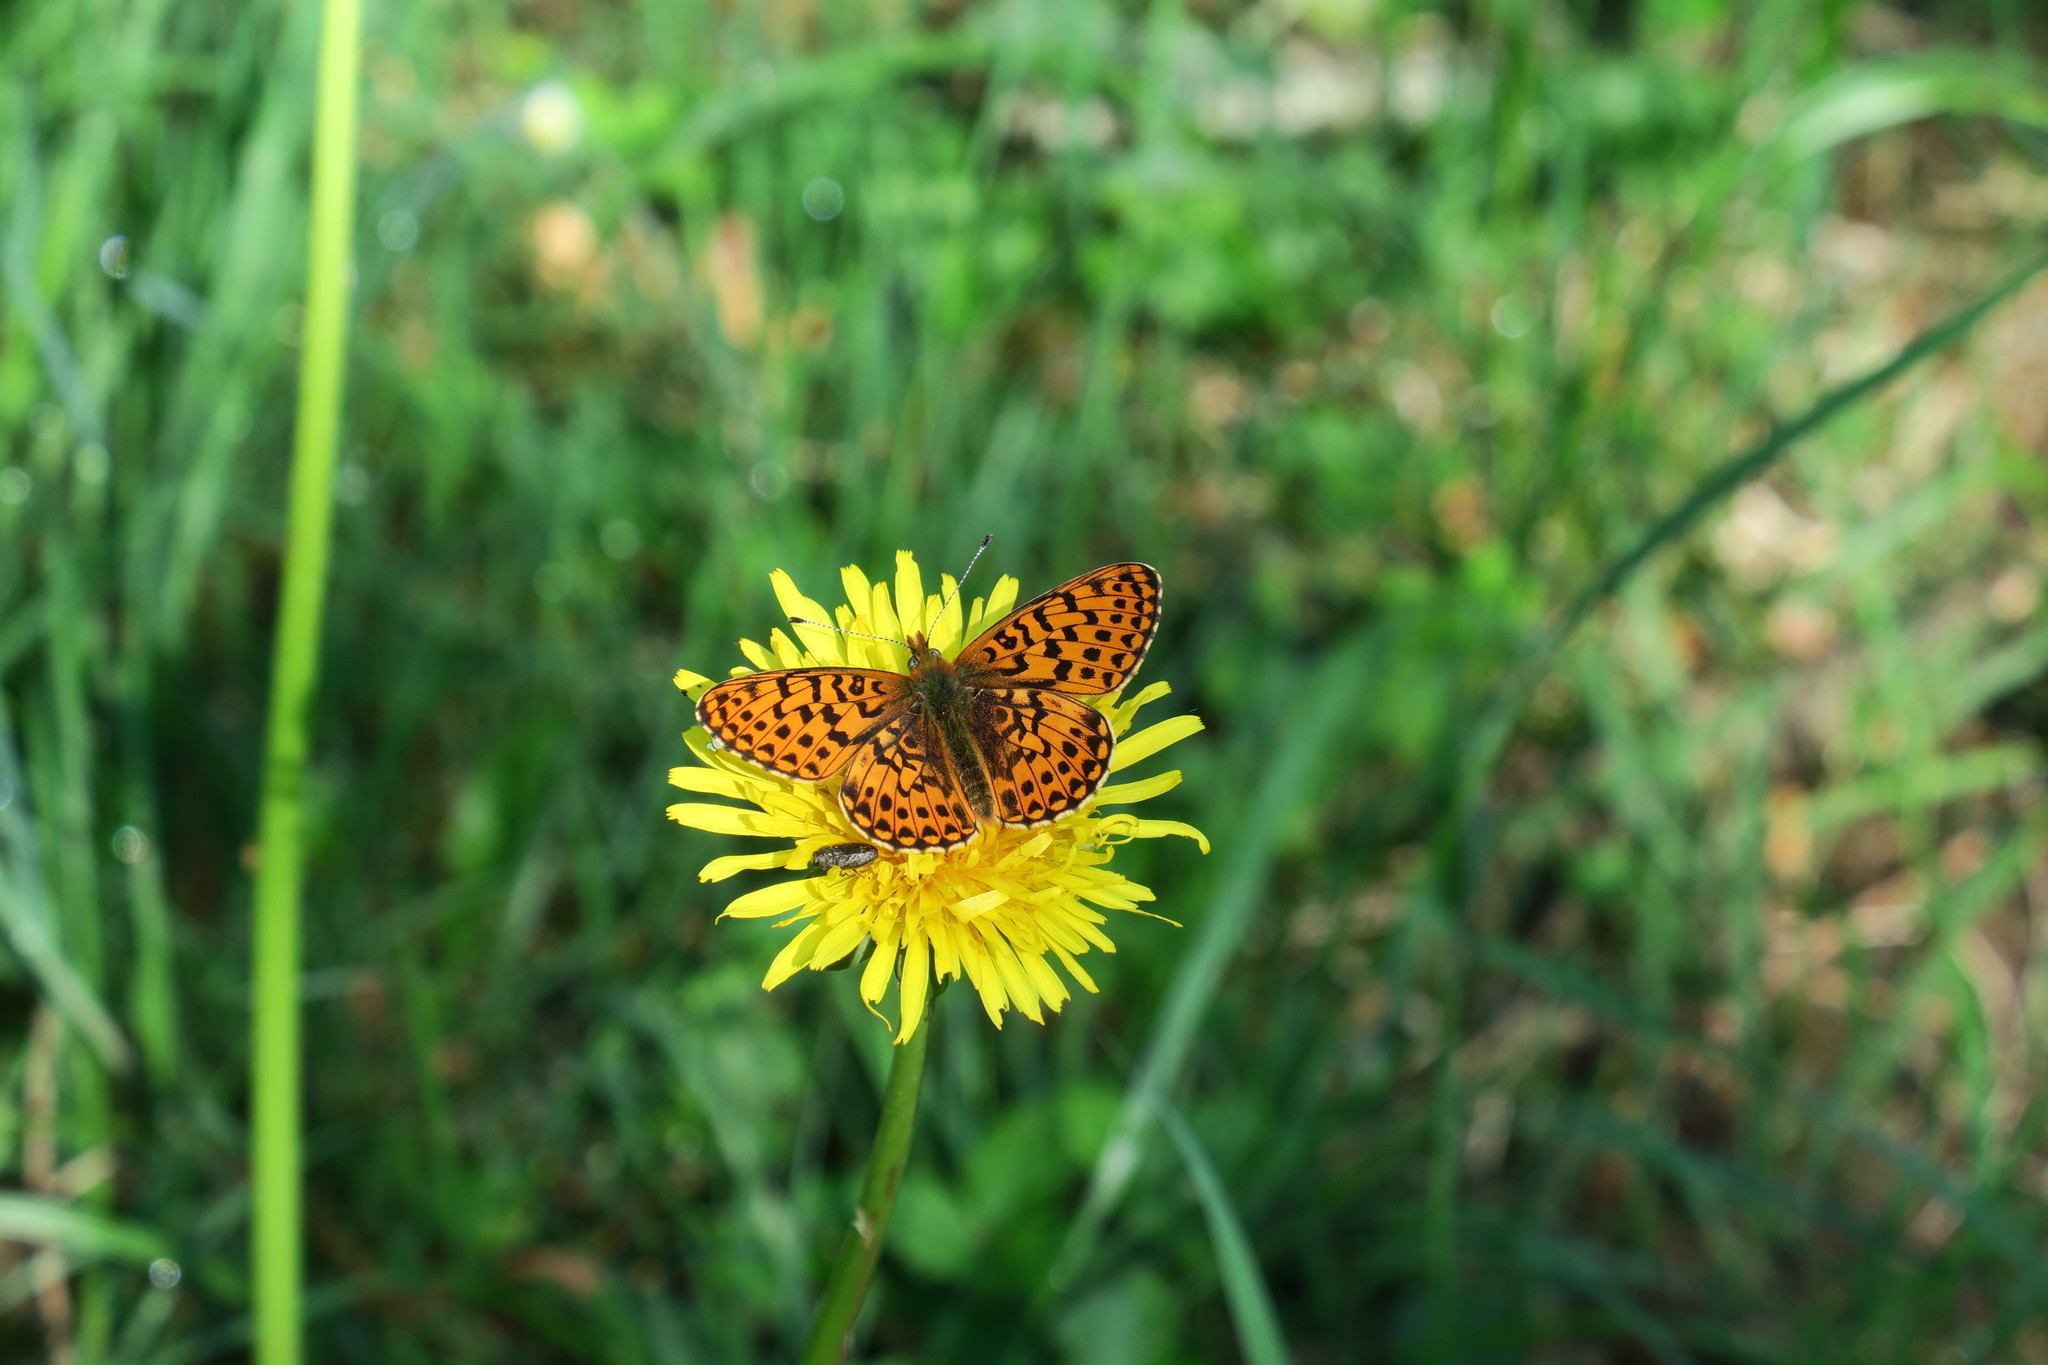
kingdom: Animalia
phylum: Arthropoda
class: Insecta
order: Lepidoptera
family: Nymphalidae
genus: Clossiana
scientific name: Clossiana euphrosyne
